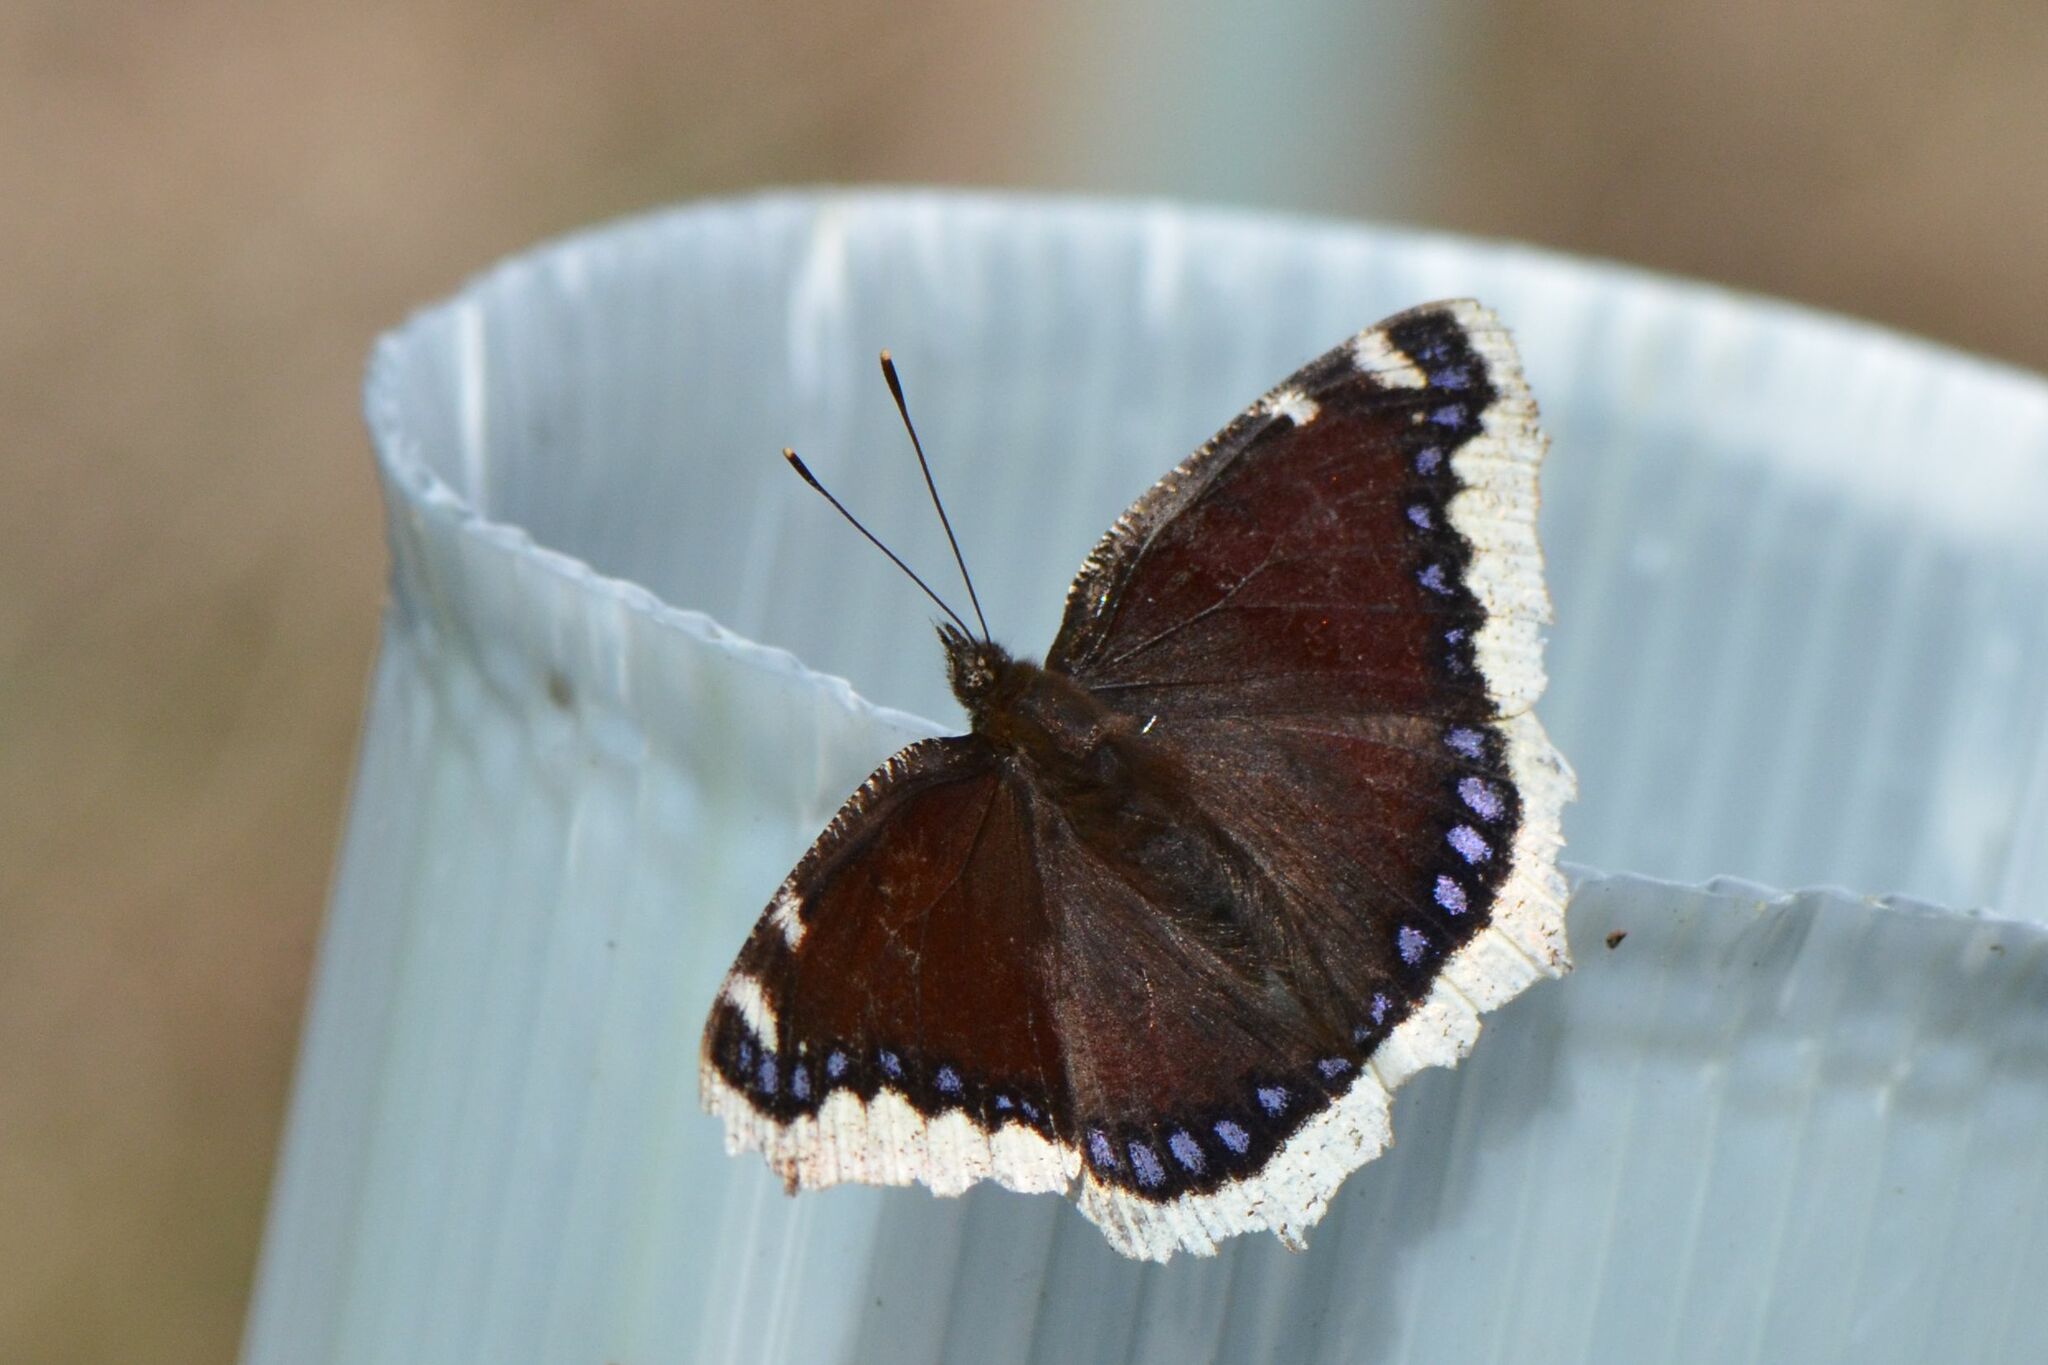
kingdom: Animalia
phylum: Arthropoda
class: Insecta
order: Lepidoptera
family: Nymphalidae
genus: Nymphalis
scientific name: Nymphalis antiopa
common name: Camberwell beauty
